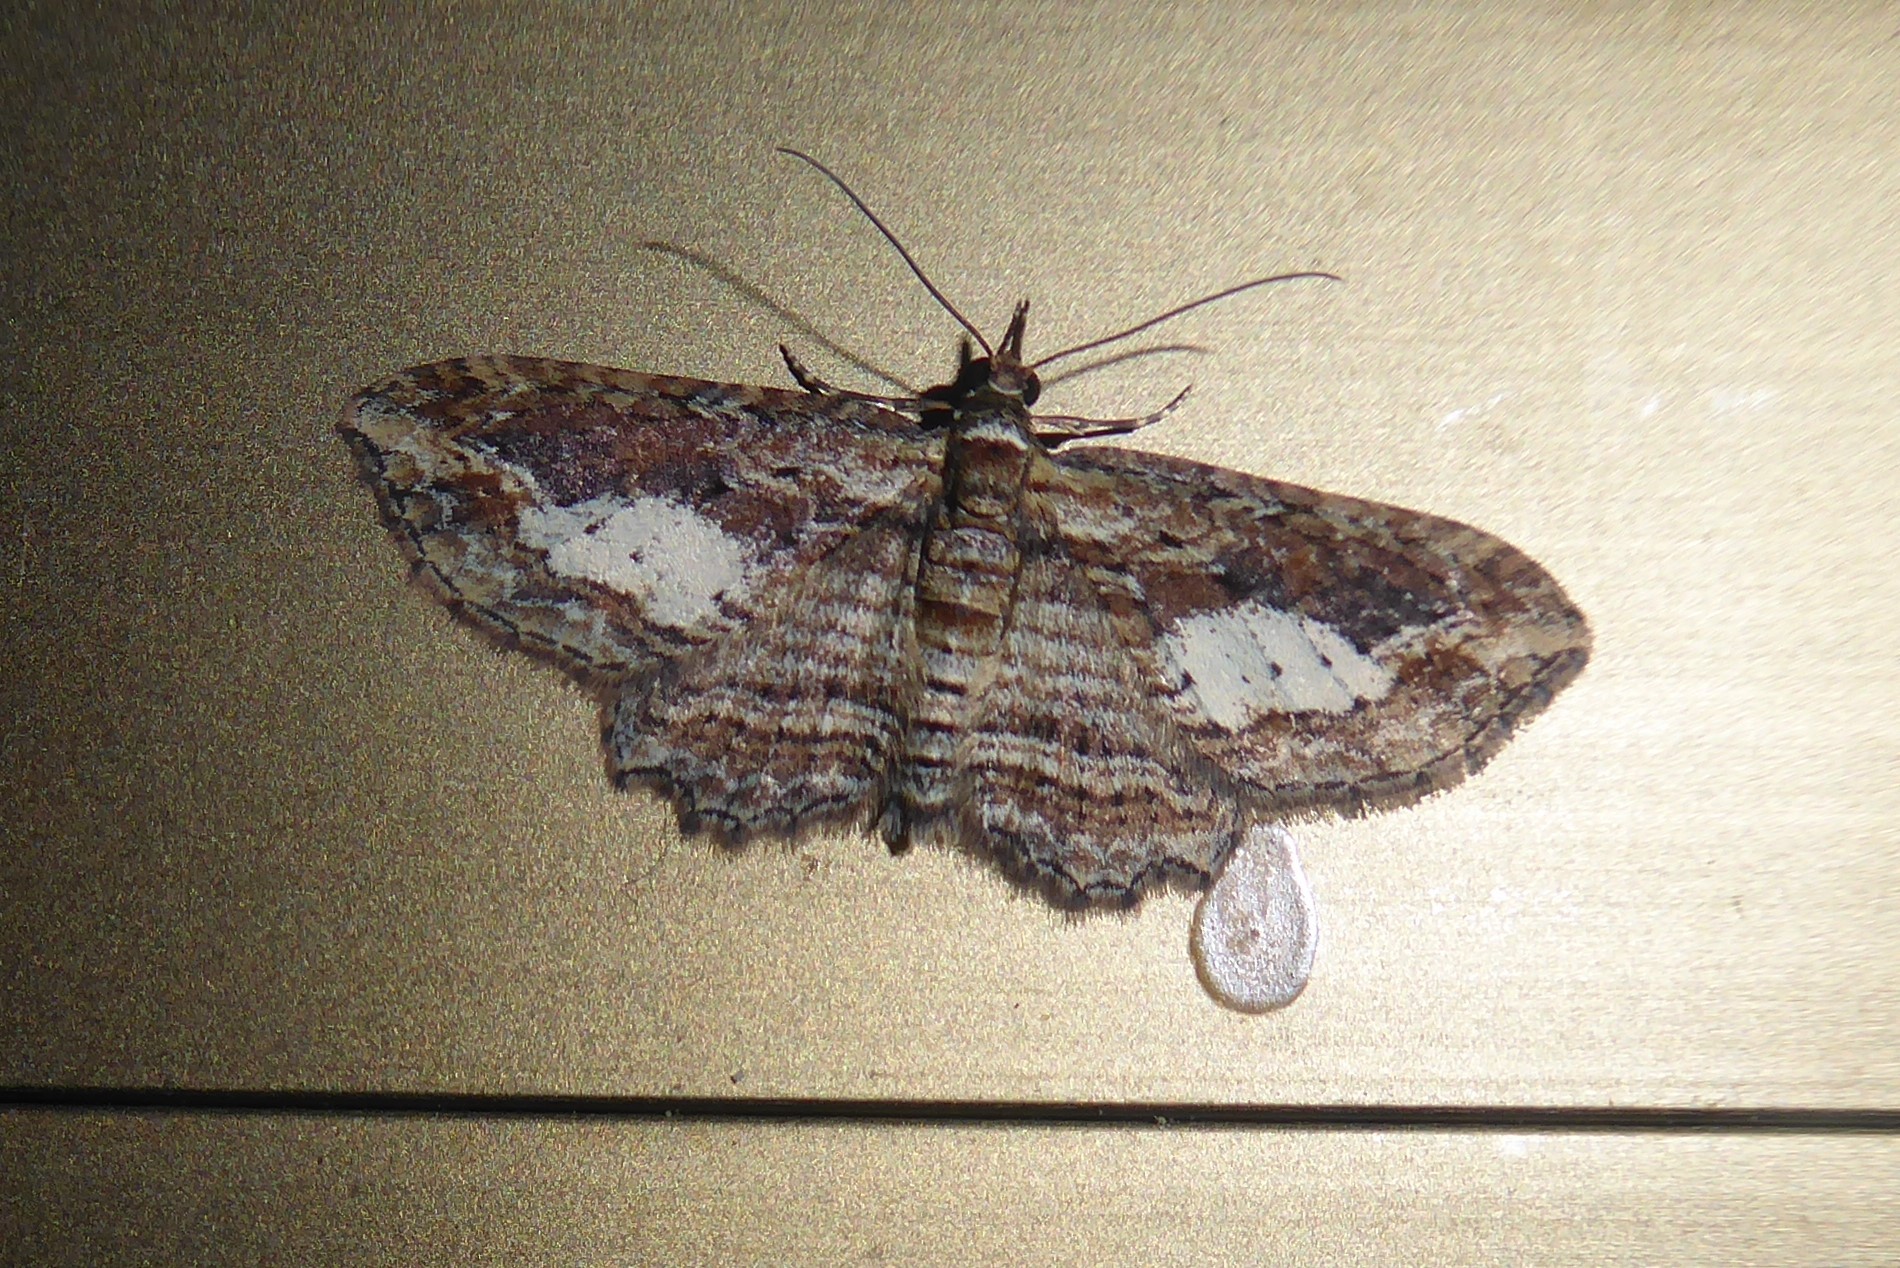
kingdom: Animalia
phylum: Arthropoda
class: Insecta
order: Lepidoptera
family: Geometridae
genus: Chloroclystis
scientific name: Chloroclystis filata
